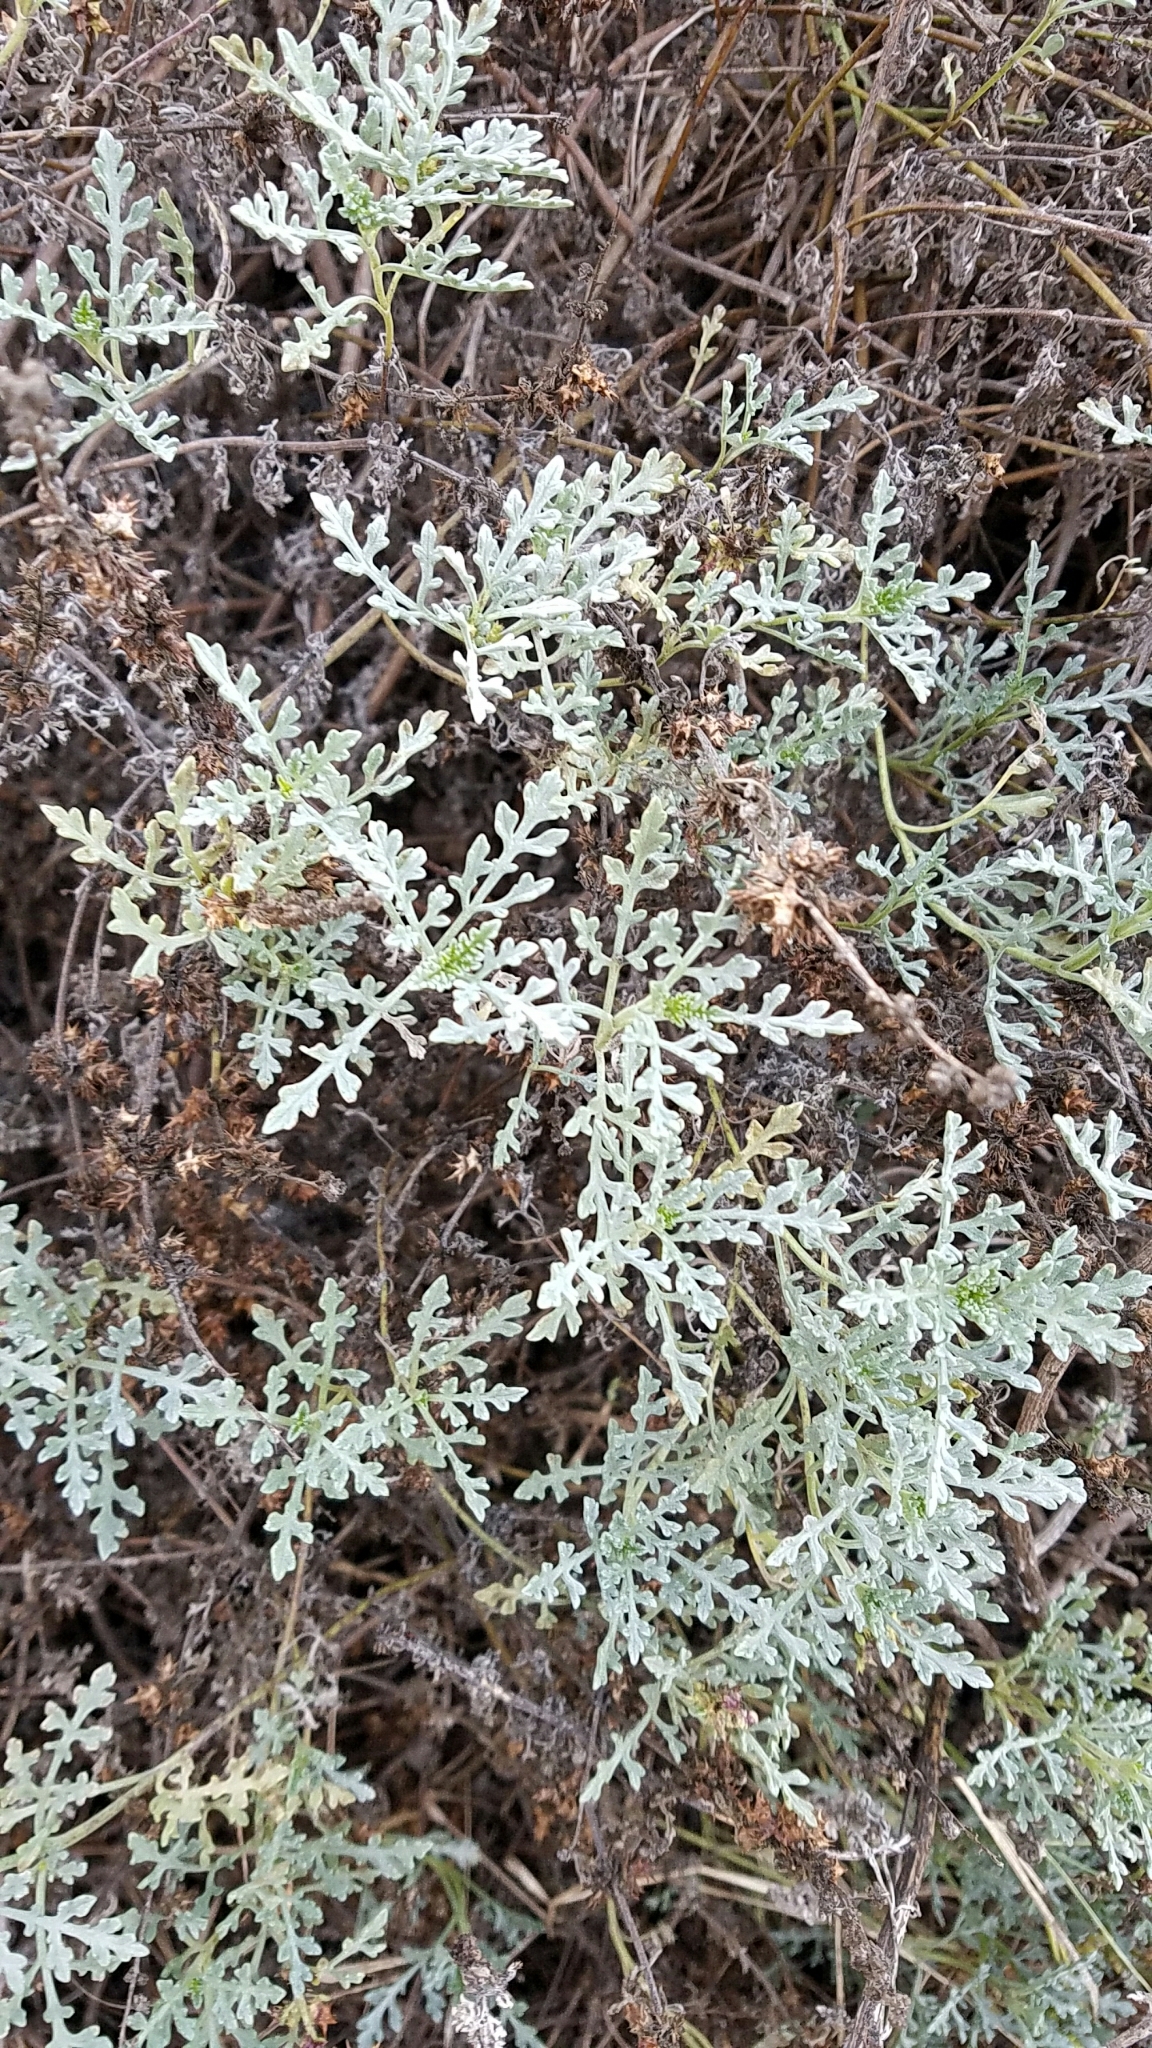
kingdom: Plantae
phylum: Tracheophyta
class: Magnoliopsida
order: Asterales
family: Asteraceae
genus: Ambrosia
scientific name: Ambrosia chamissonis
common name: Beachbur
